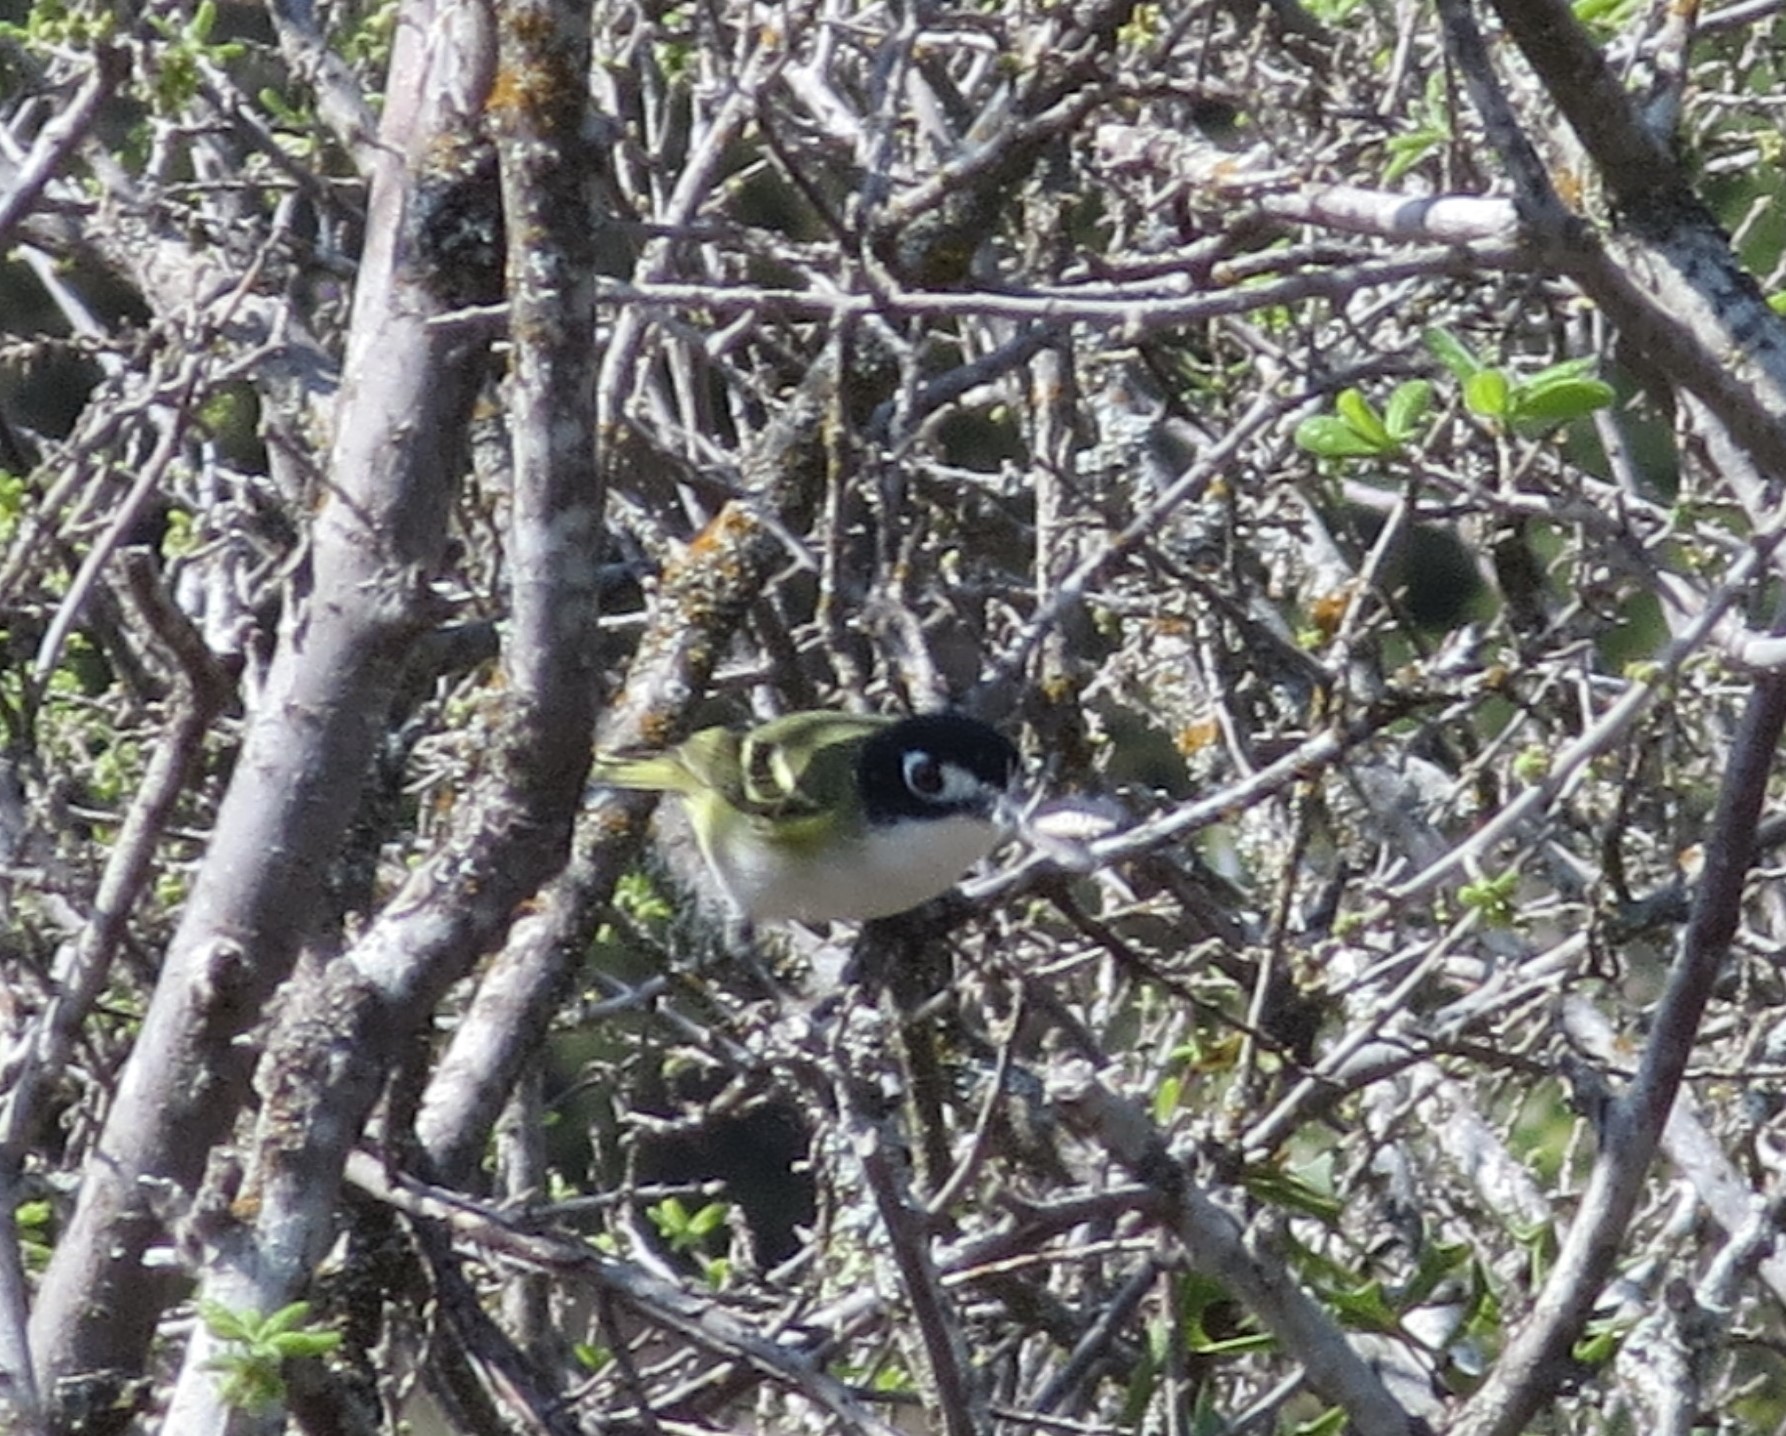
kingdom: Animalia
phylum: Chordata
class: Aves
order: Passeriformes
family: Vireonidae
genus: Vireo
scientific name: Vireo atricapilla
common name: Black-capped vireo
